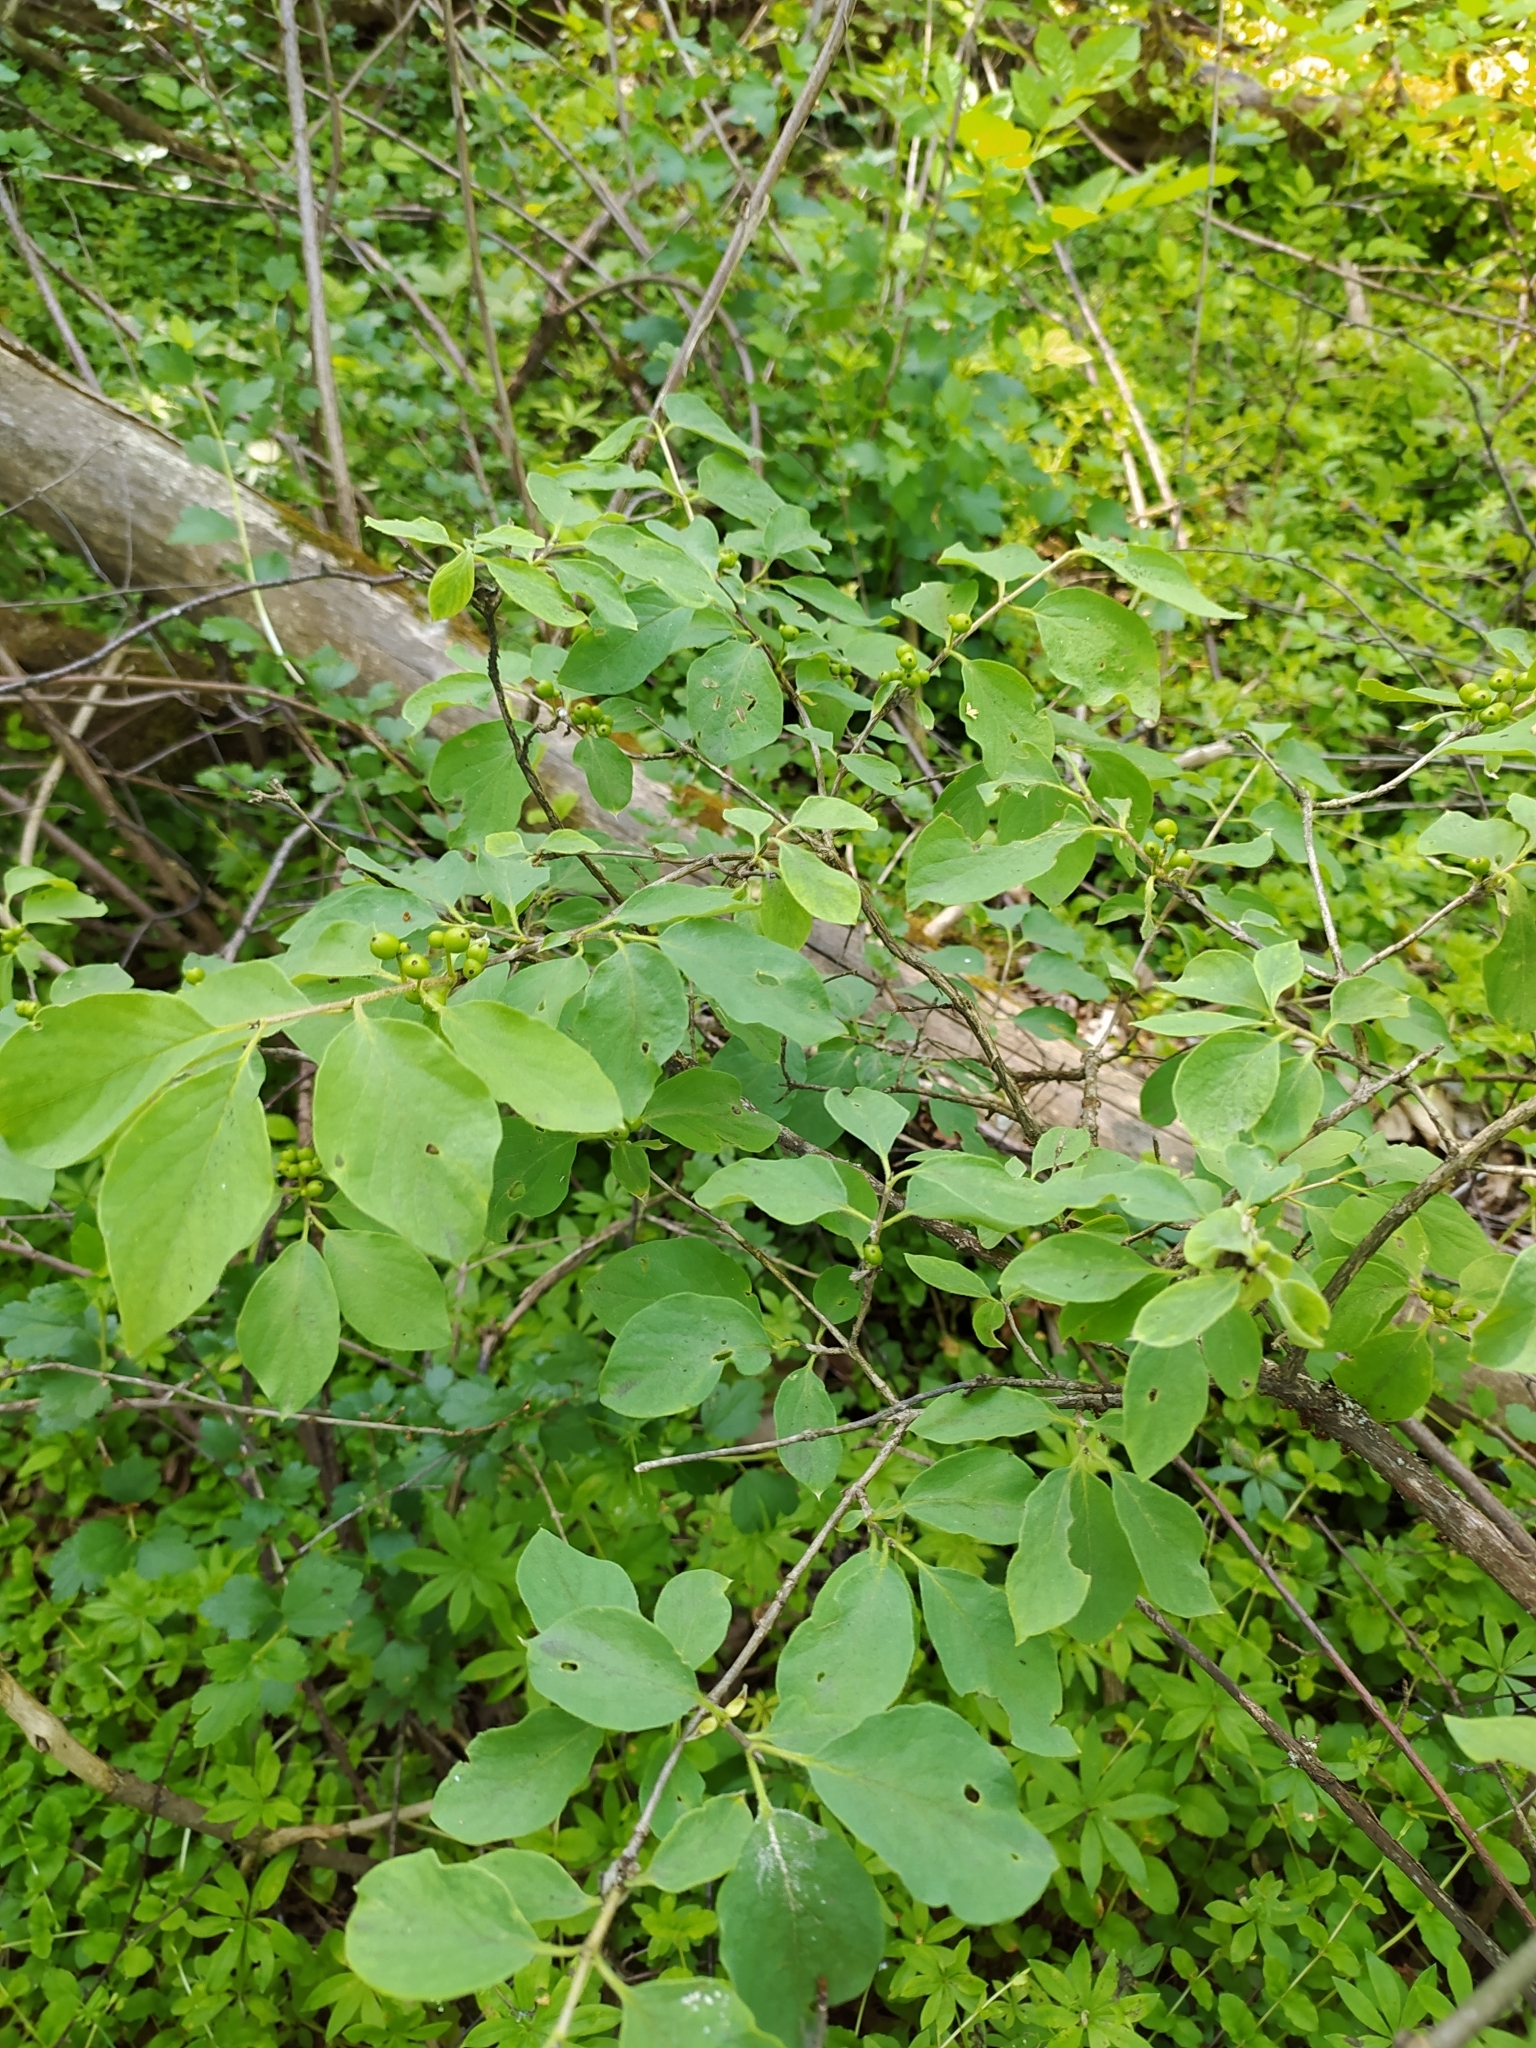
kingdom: Plantae
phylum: Tracheophyta
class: Magnoliopsida
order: Dipsacales
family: Caprifoliaceae
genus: Lonicera
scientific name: Lonicera xylosteum
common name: Fly honeysuckle
